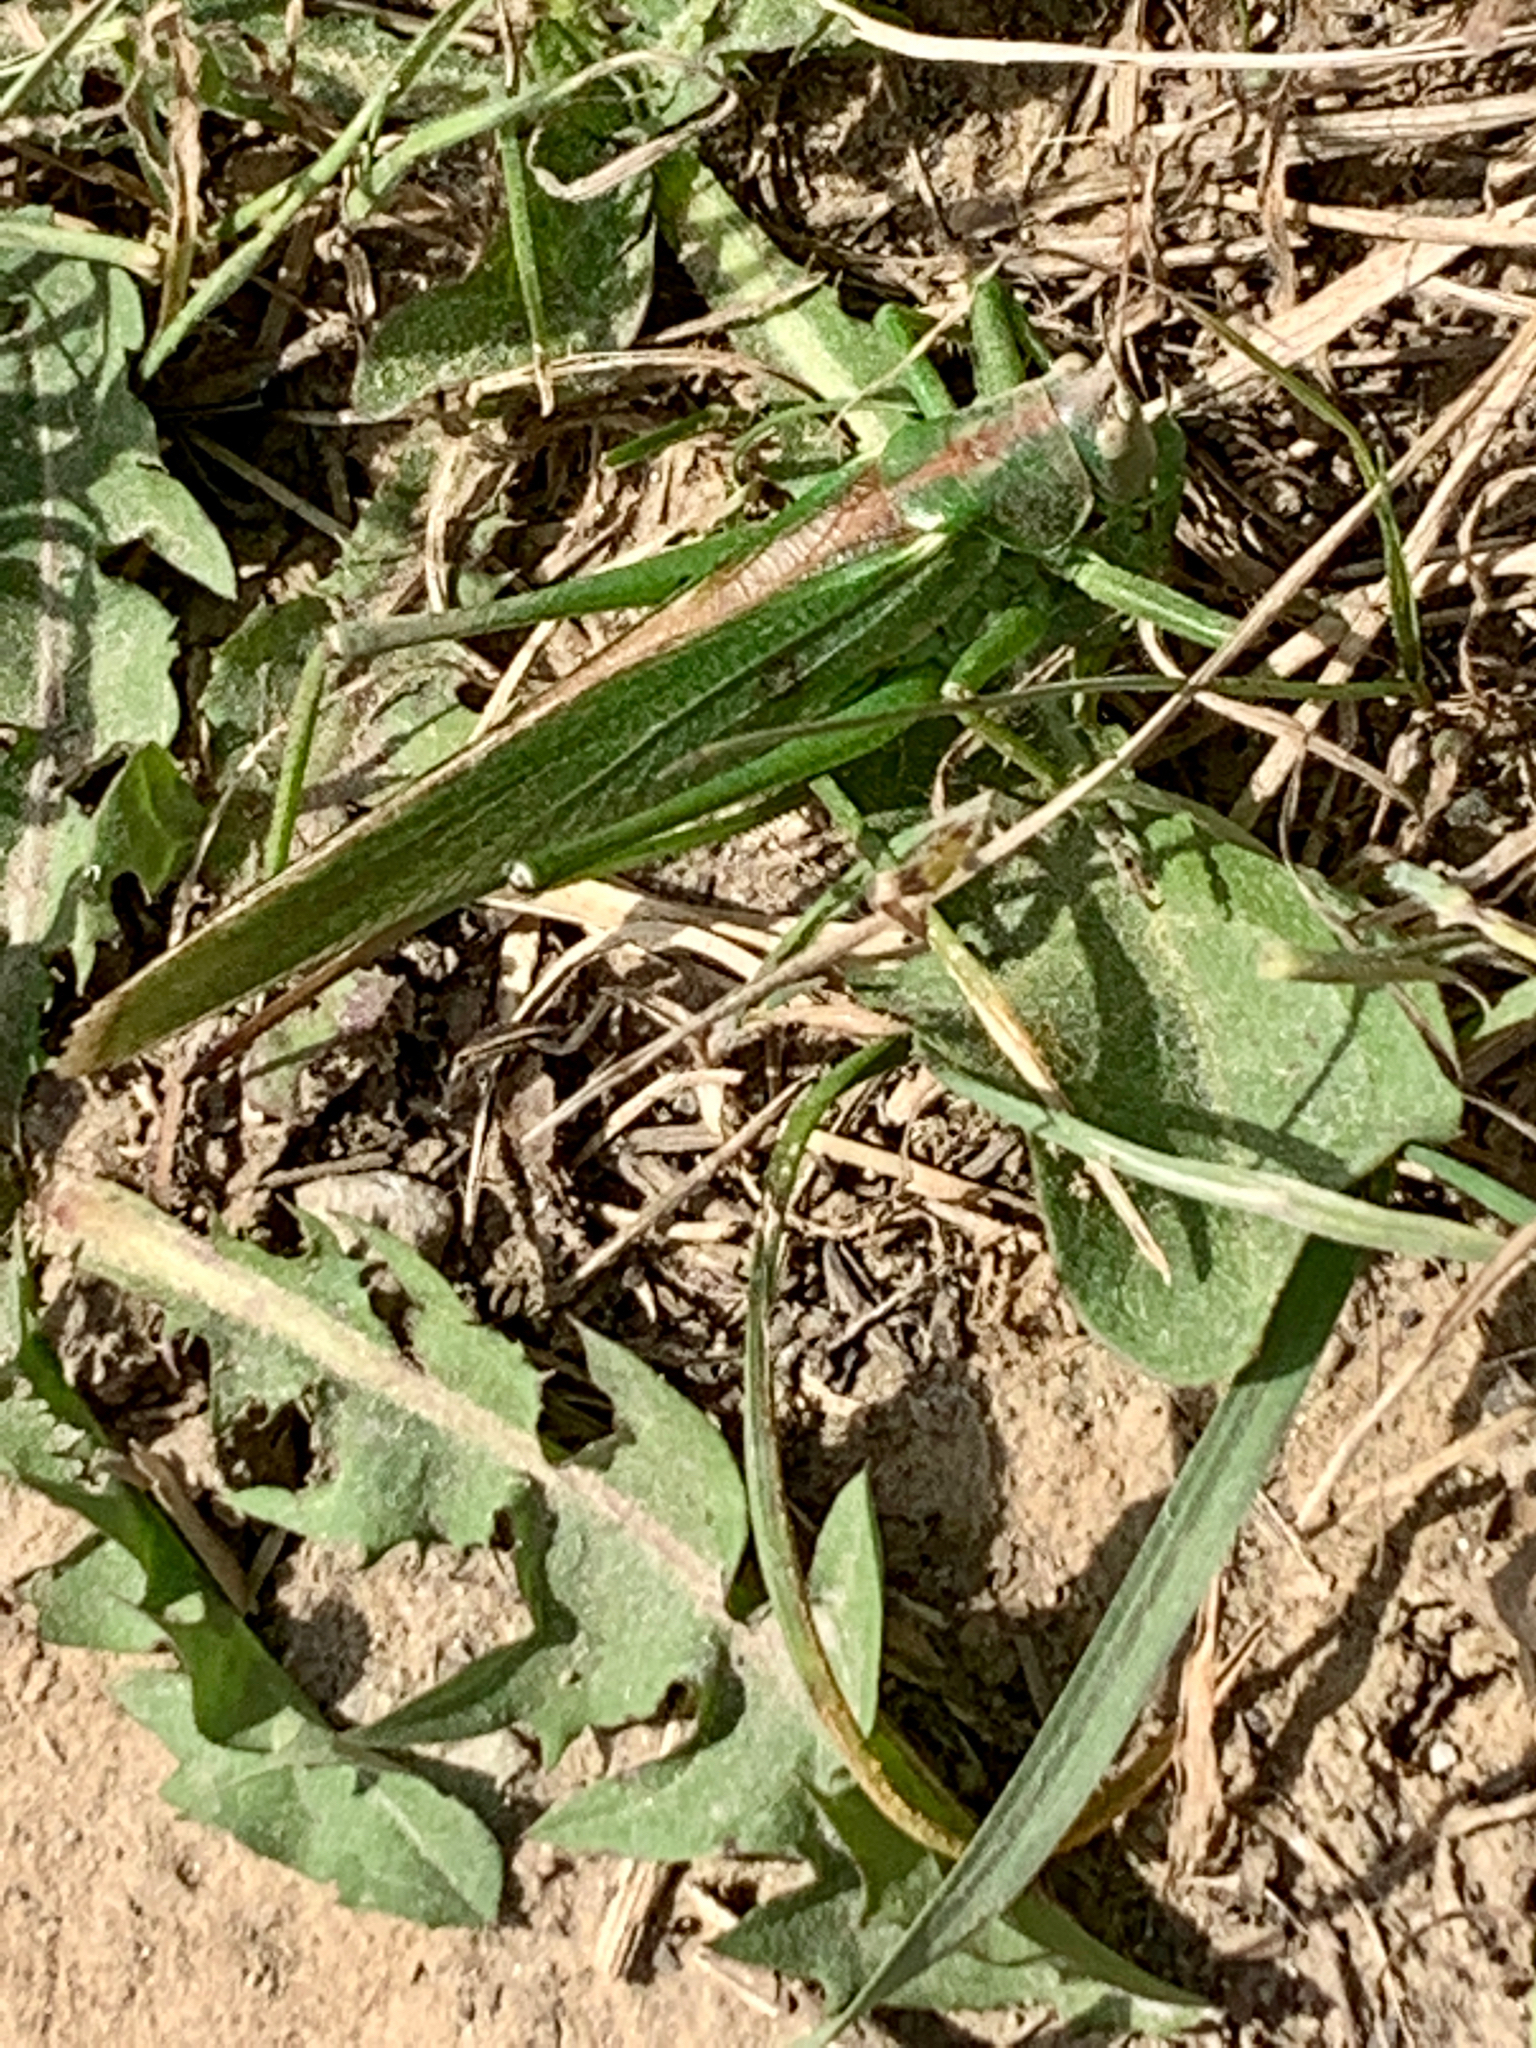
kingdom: Animalia
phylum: Arthropoda
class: Insecta
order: Orthoptera
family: Tettigoniidae
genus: Tettigonia
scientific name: Tettigonia viridissima
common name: Great green bush-cricket
